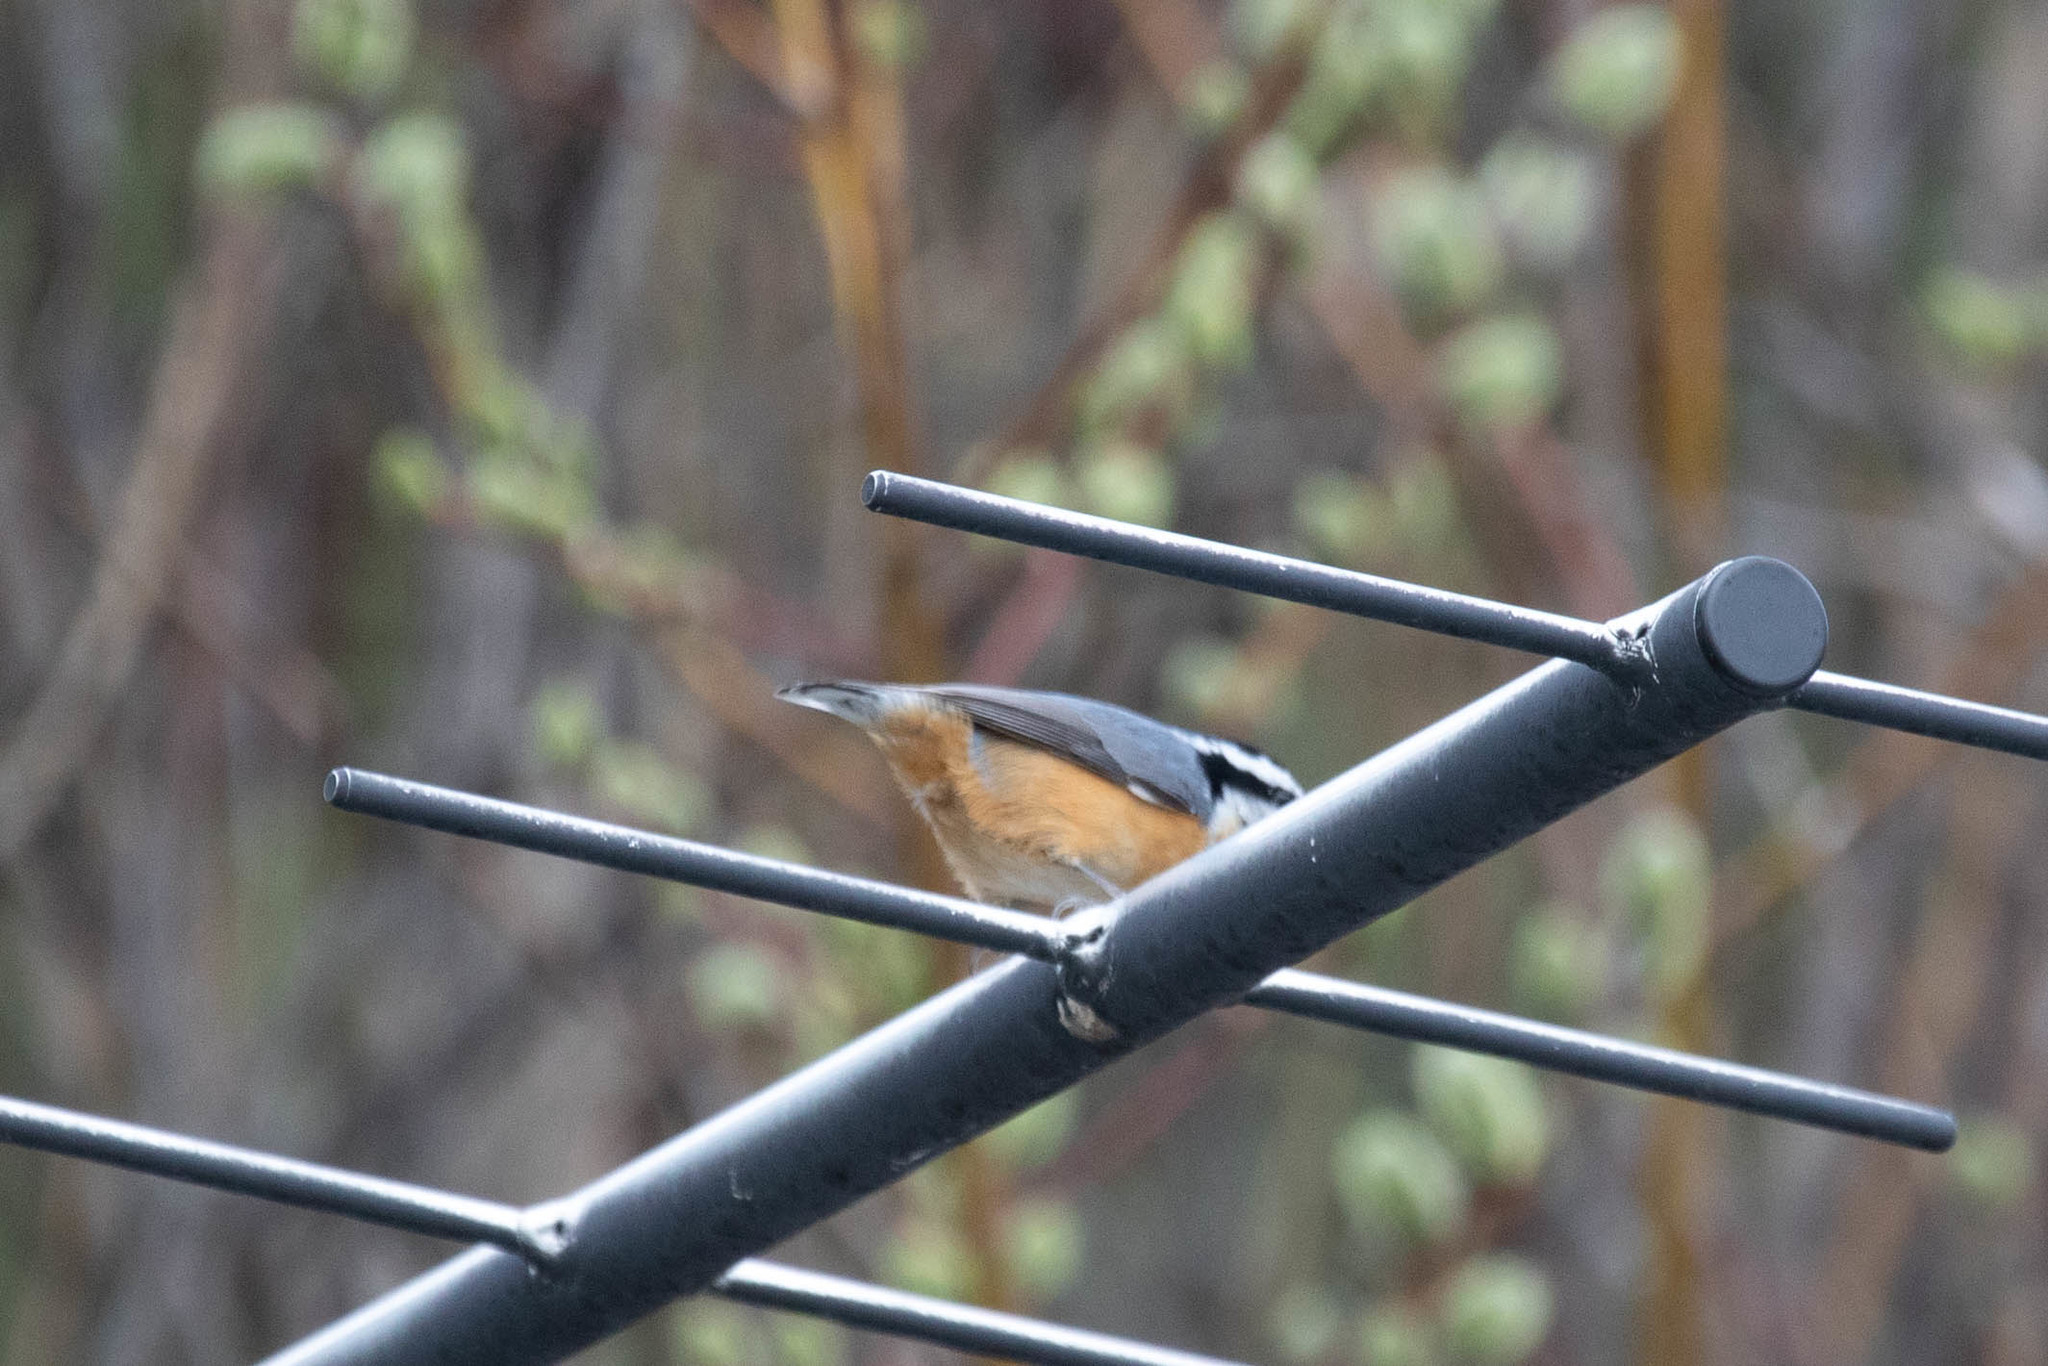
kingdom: Animalia
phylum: Chordata
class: Aves
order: Passeriformes
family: Sittidae
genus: Sitta
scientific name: Sitta canadensis
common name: Red-breasted nuthatch
